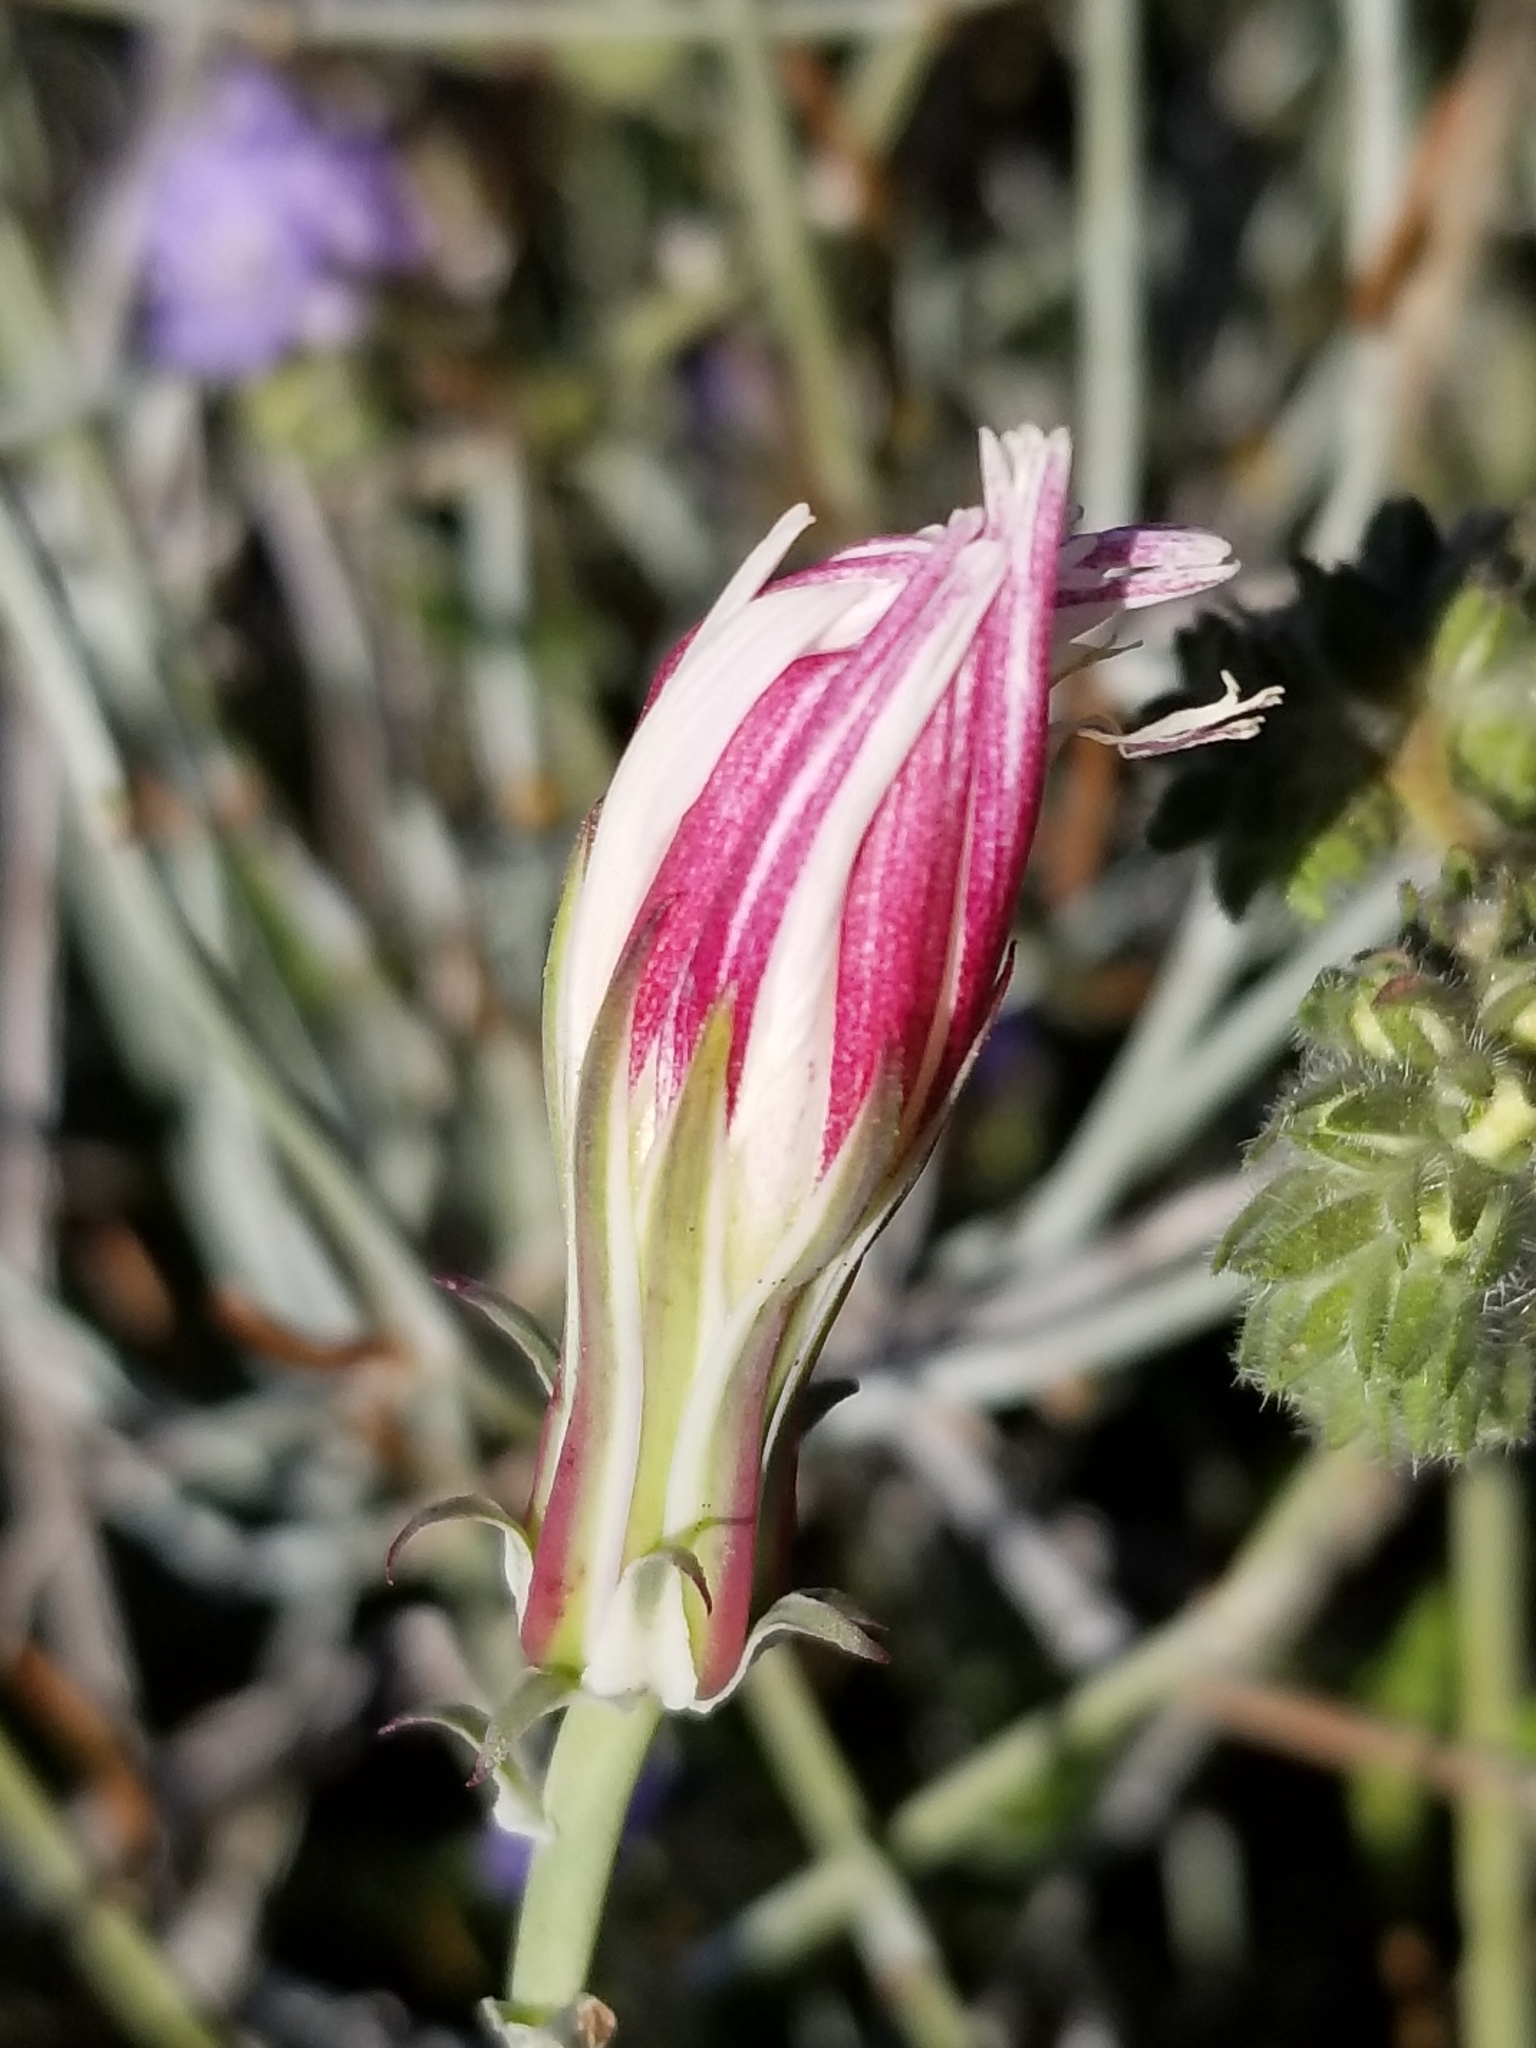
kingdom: Plantae
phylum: Tracheophyta
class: Magnoliopsida
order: Asterales
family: Asteraceae
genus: Rafinesquia
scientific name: Rafinesquia neomexicana
